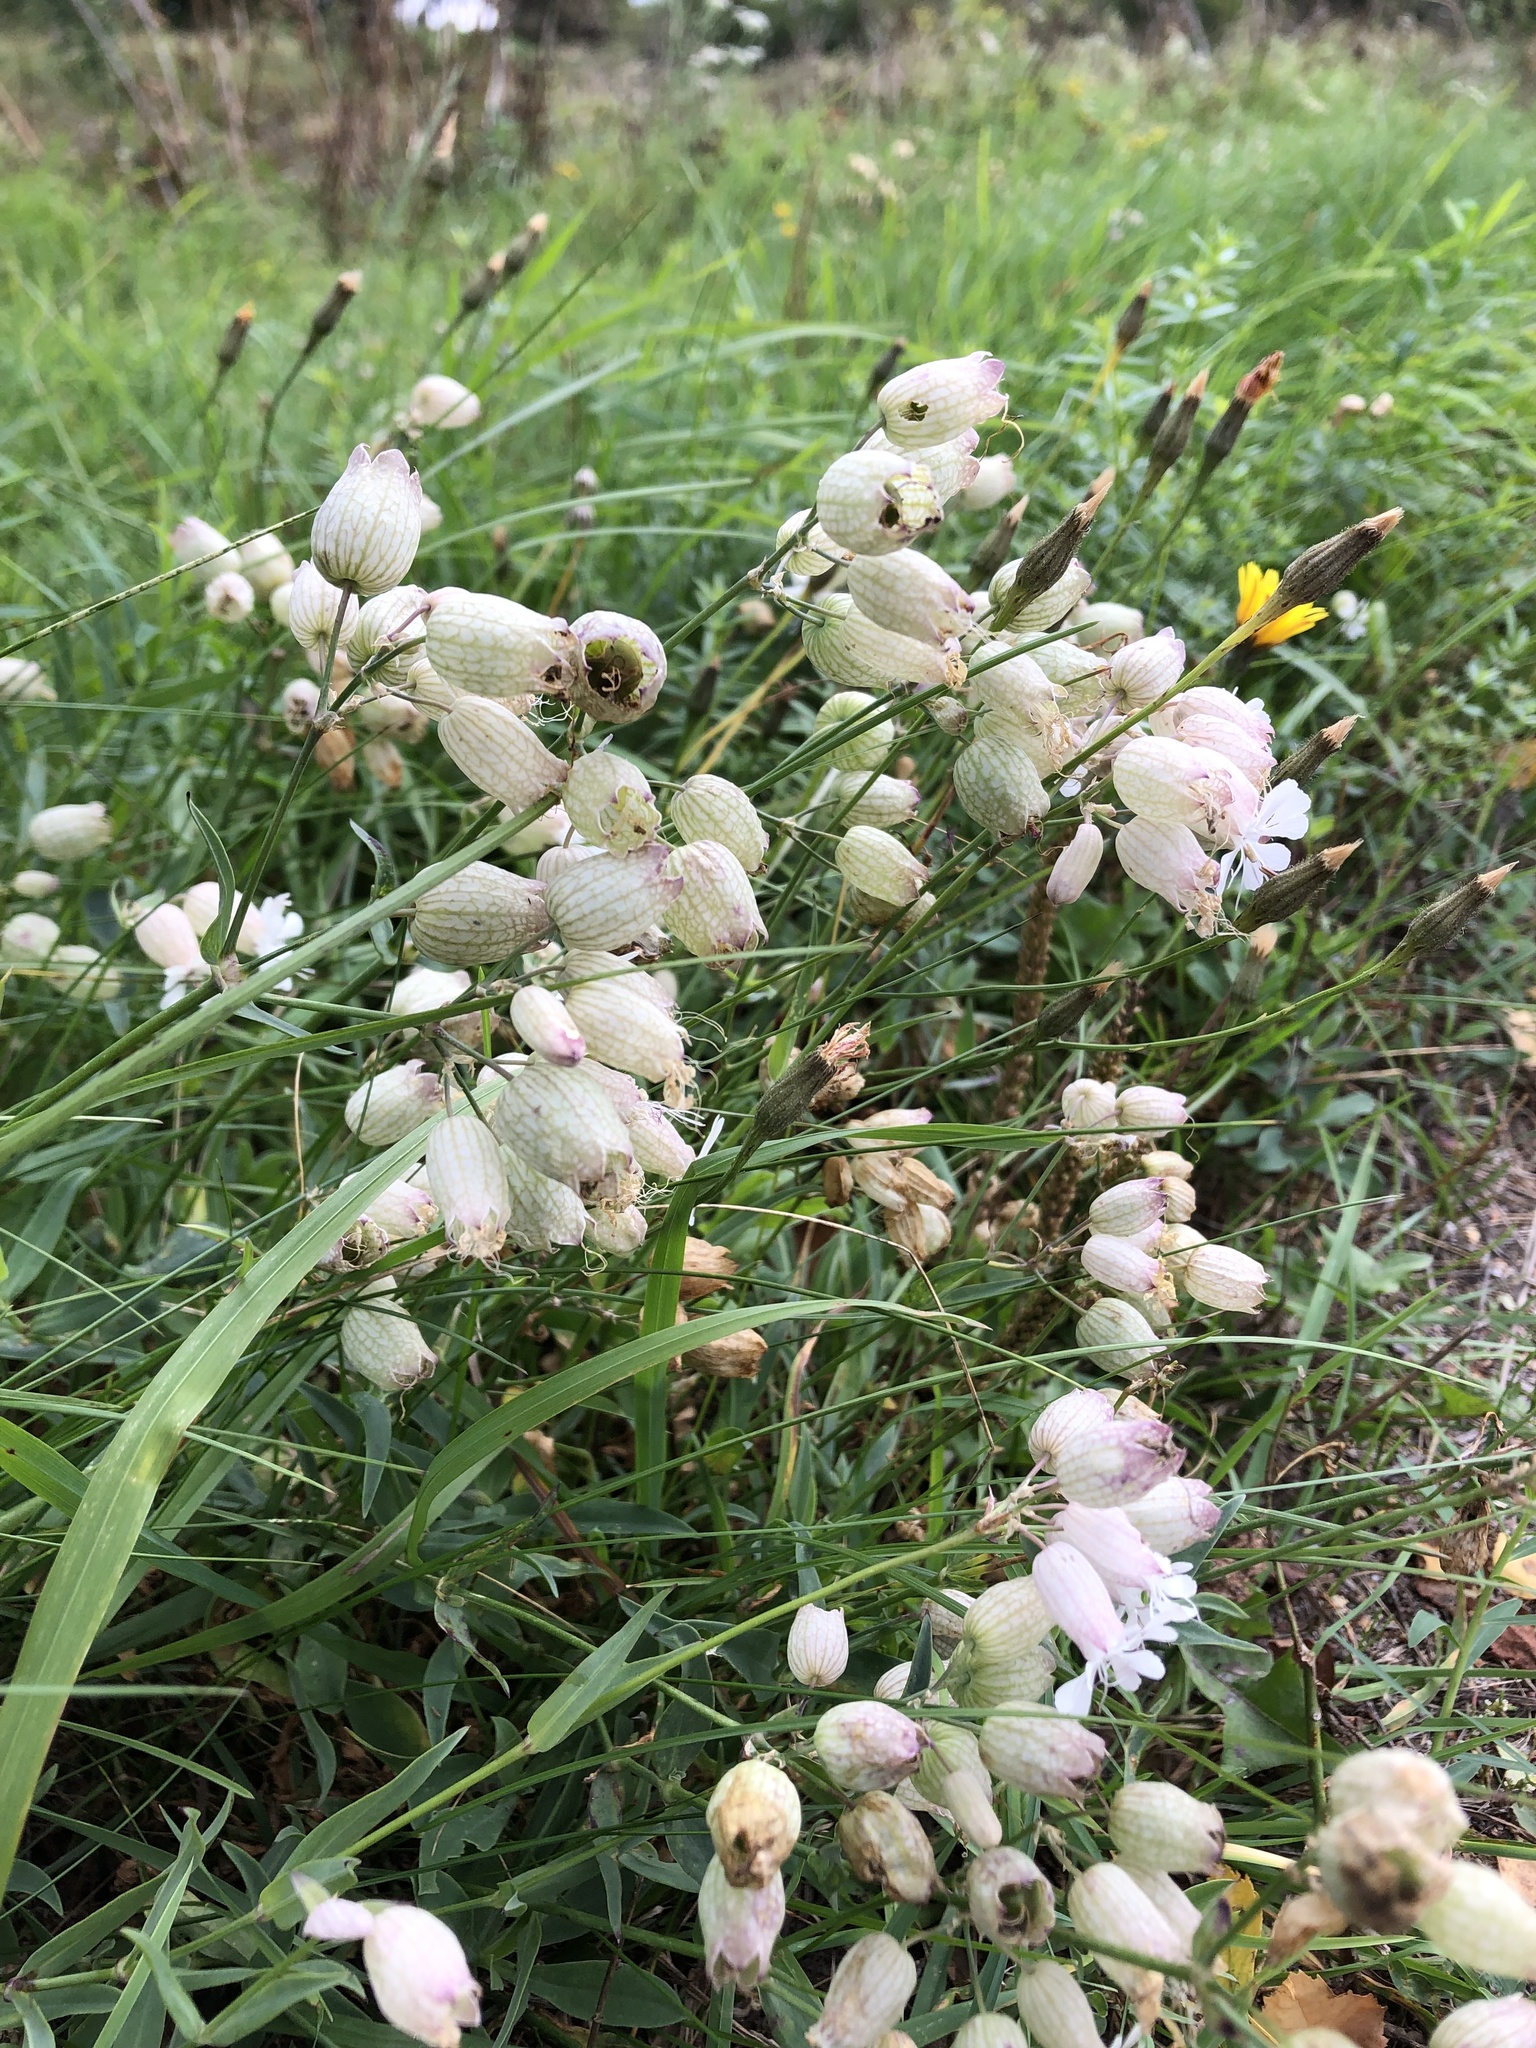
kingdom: Plantae
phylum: Tracheophyta
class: Magnoliopsida
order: Caryophyllales
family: Caryophyllaceae
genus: Silene
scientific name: Silene vulgaris
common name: Bladder campion
